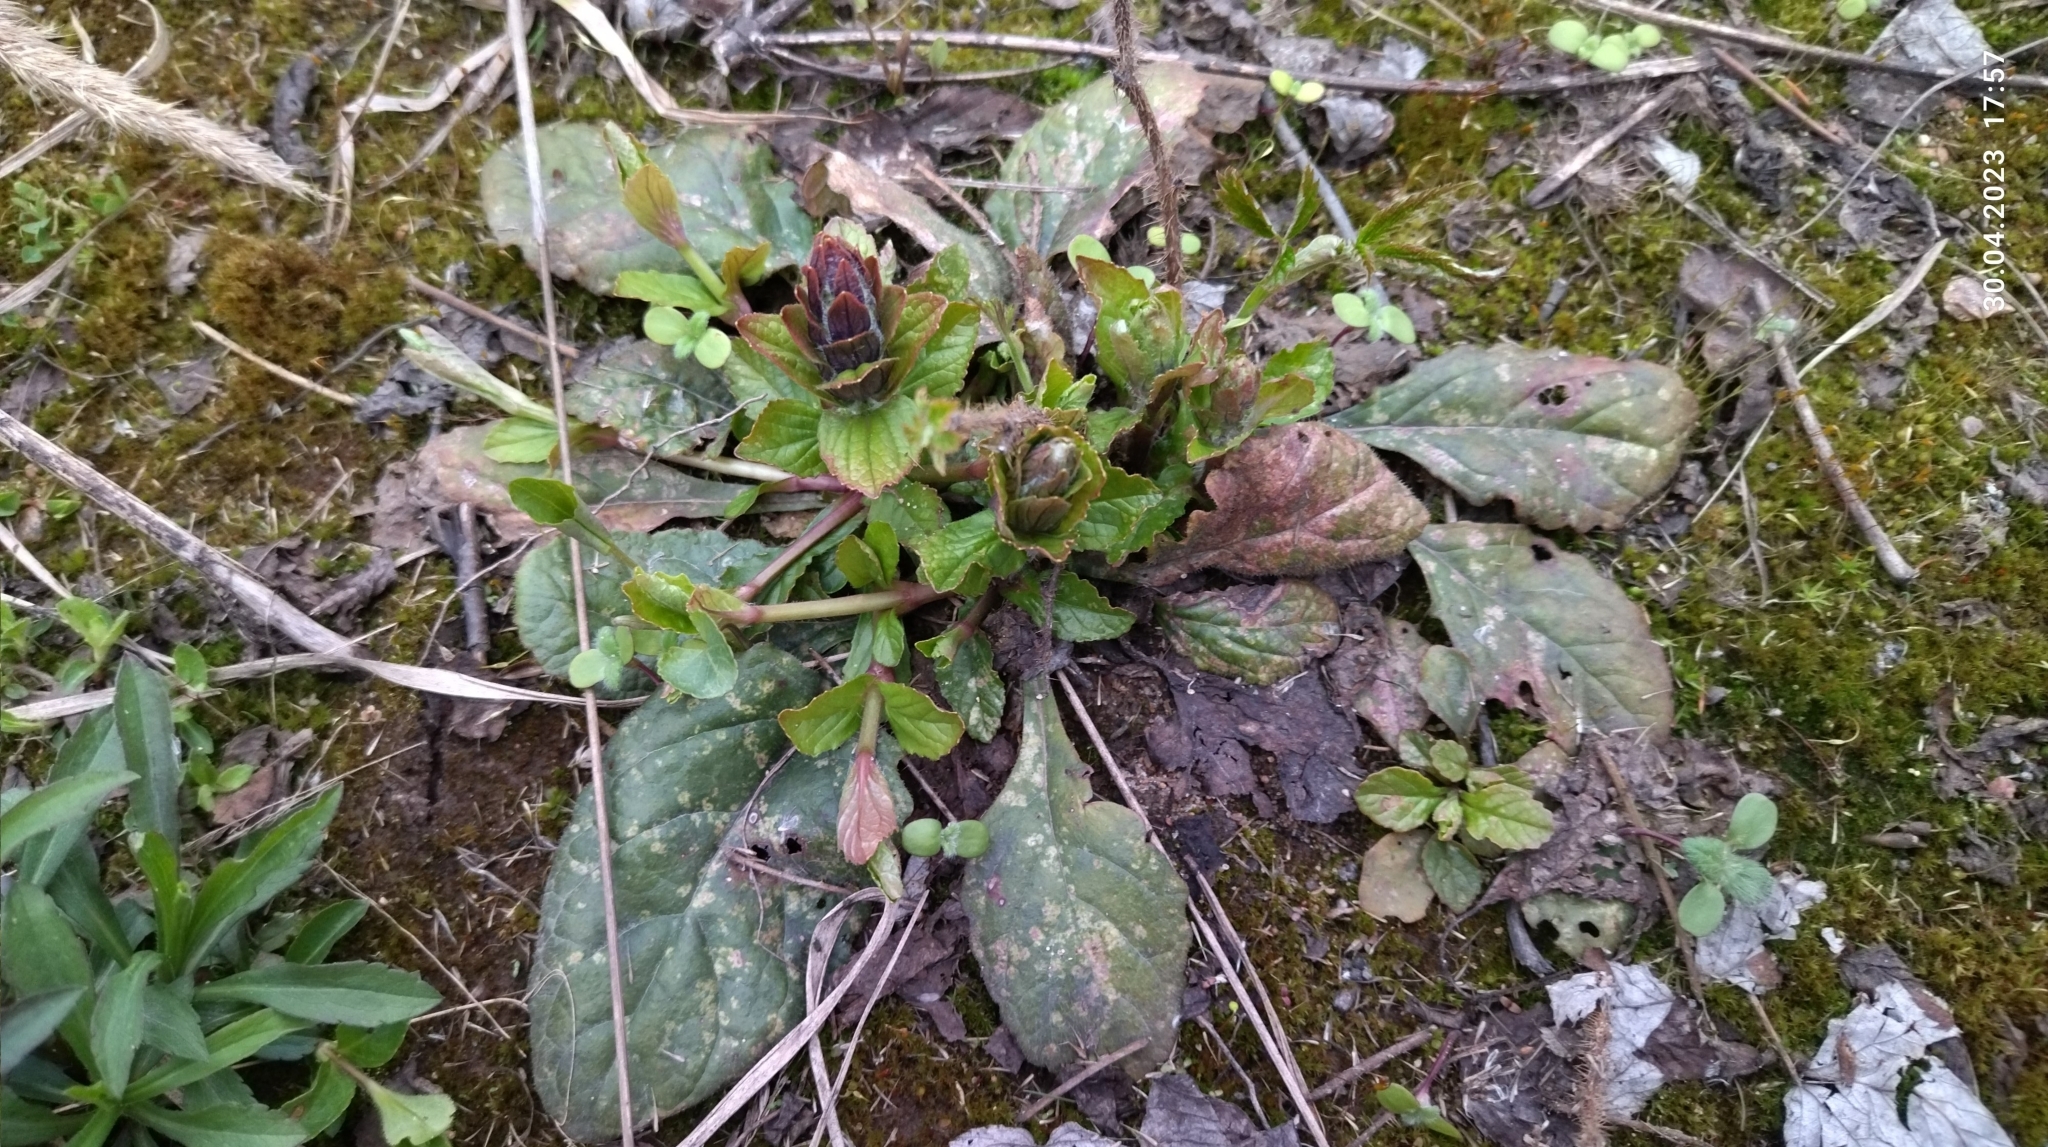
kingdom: Plantae
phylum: Tracheophyta
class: Magnoliopsida
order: Lamiales
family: Lamiaceae
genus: Ajuga
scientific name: Ajuga reptans
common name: Bugle
